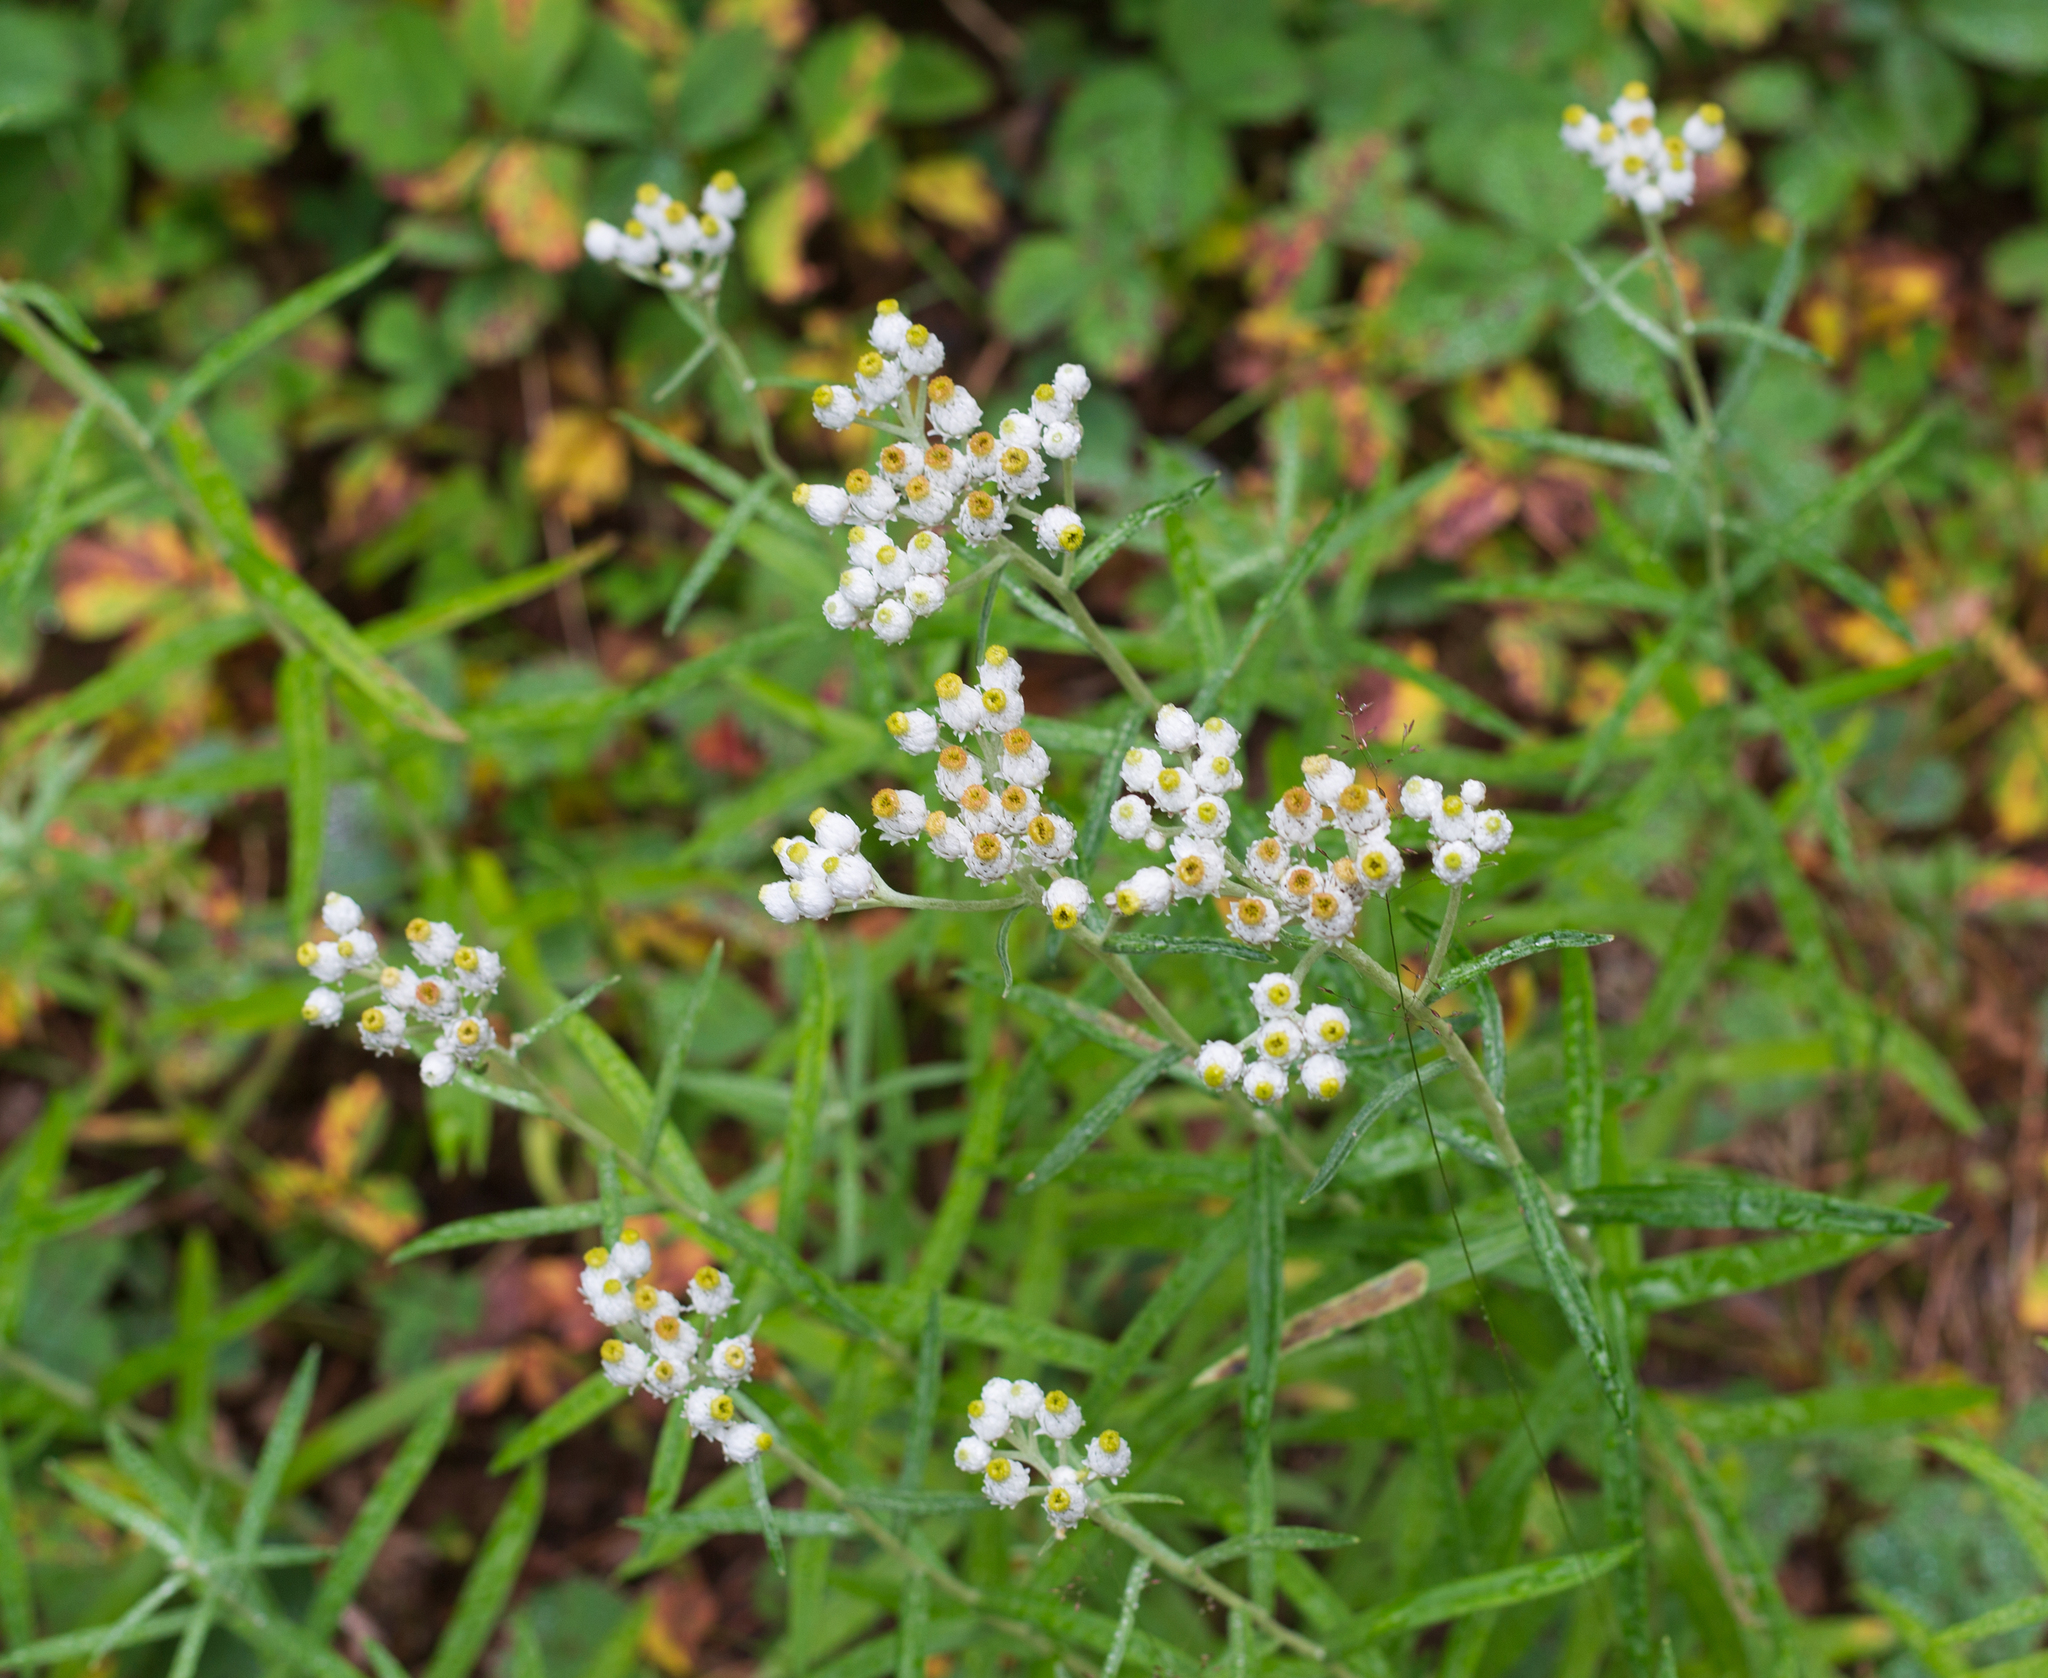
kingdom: Plantae
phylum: Tracheophyta
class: Magnoliopsida
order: Asterales
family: Asteraceae
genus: Anaphalis
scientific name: Anaphalis margaritacea
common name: Pearly everlasting
